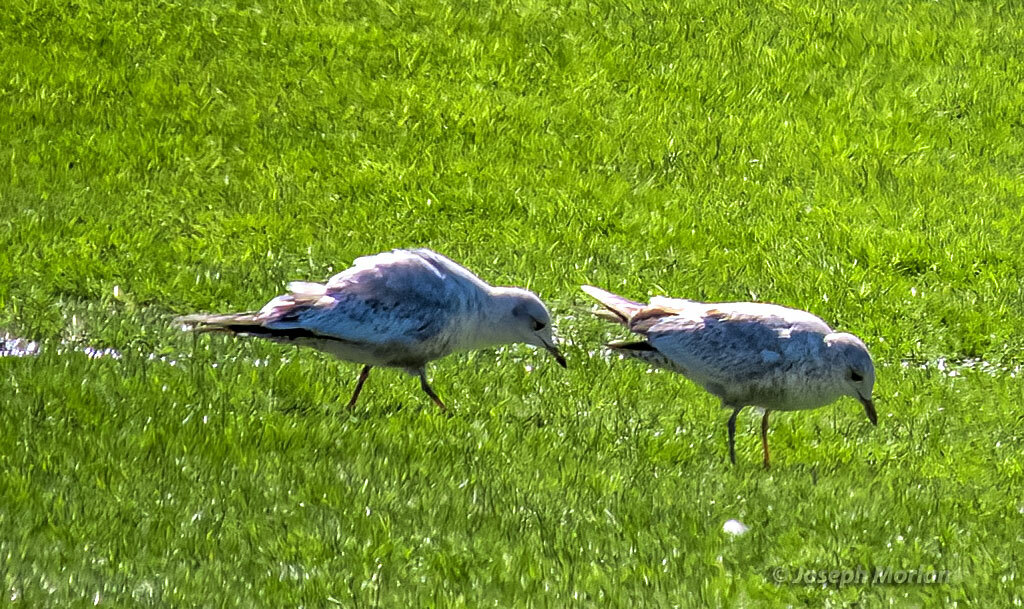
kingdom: Animalia
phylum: Chordata
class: Aves
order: Charadriiformes
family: Laridae
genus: Larus
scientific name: Larus brachyrhynchus
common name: Short-billed gull
